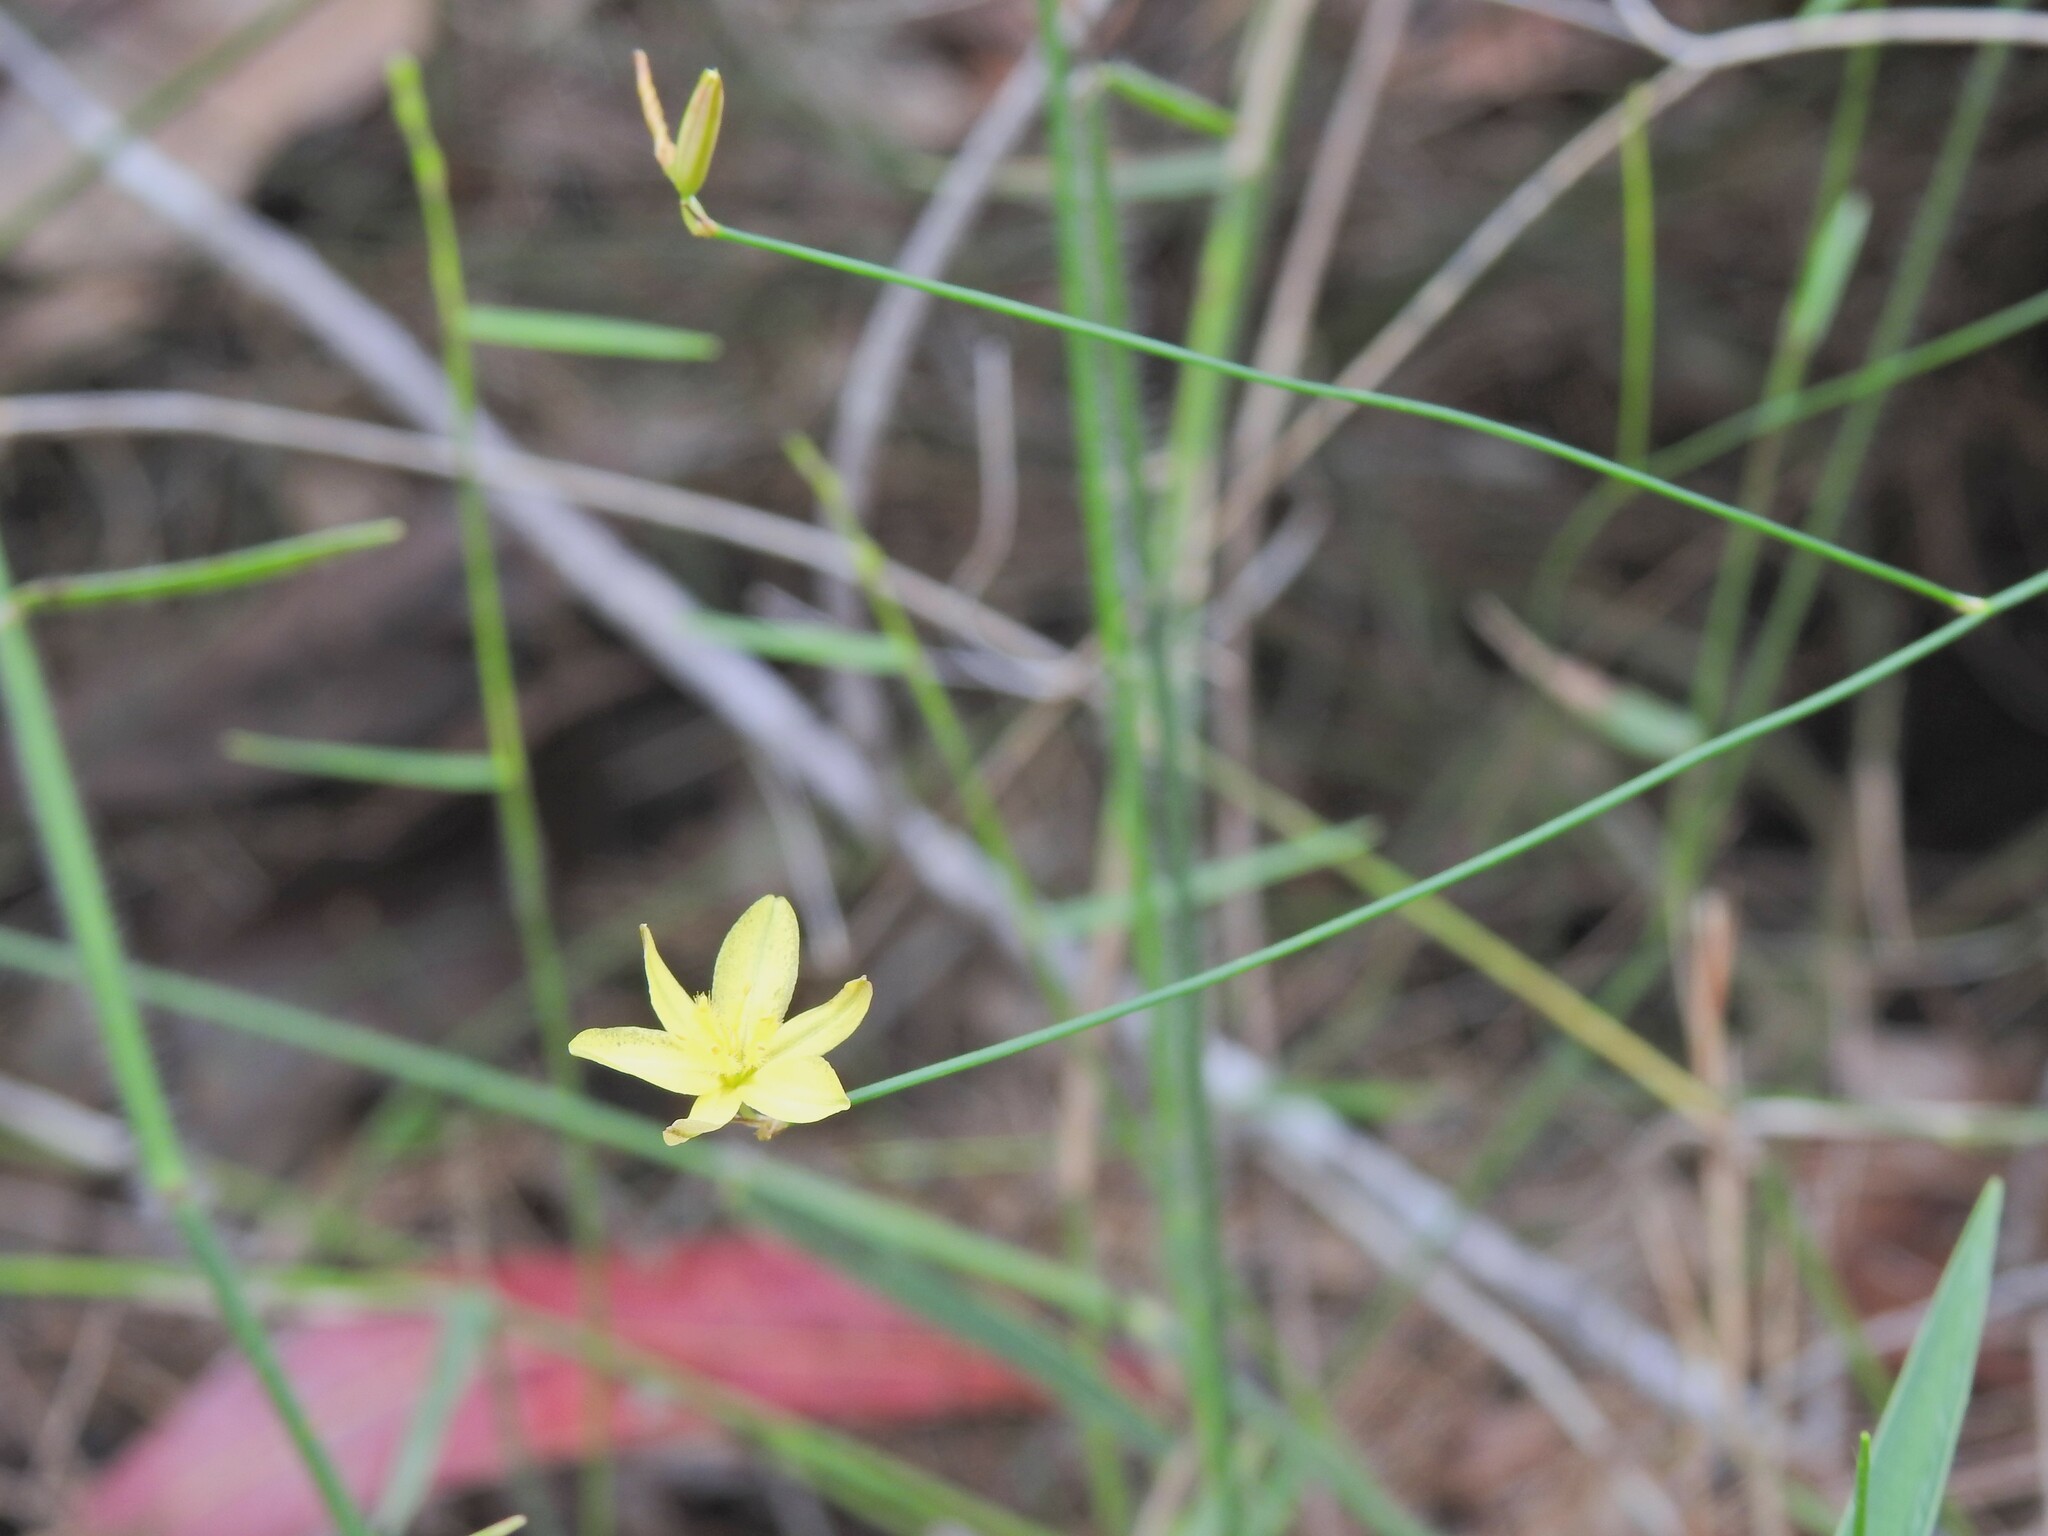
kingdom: Plantae
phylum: Tracheophyta
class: Liliopsida
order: Asparagales
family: Asphodelaceae
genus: Tricoryne
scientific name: Tricoryne elatior
